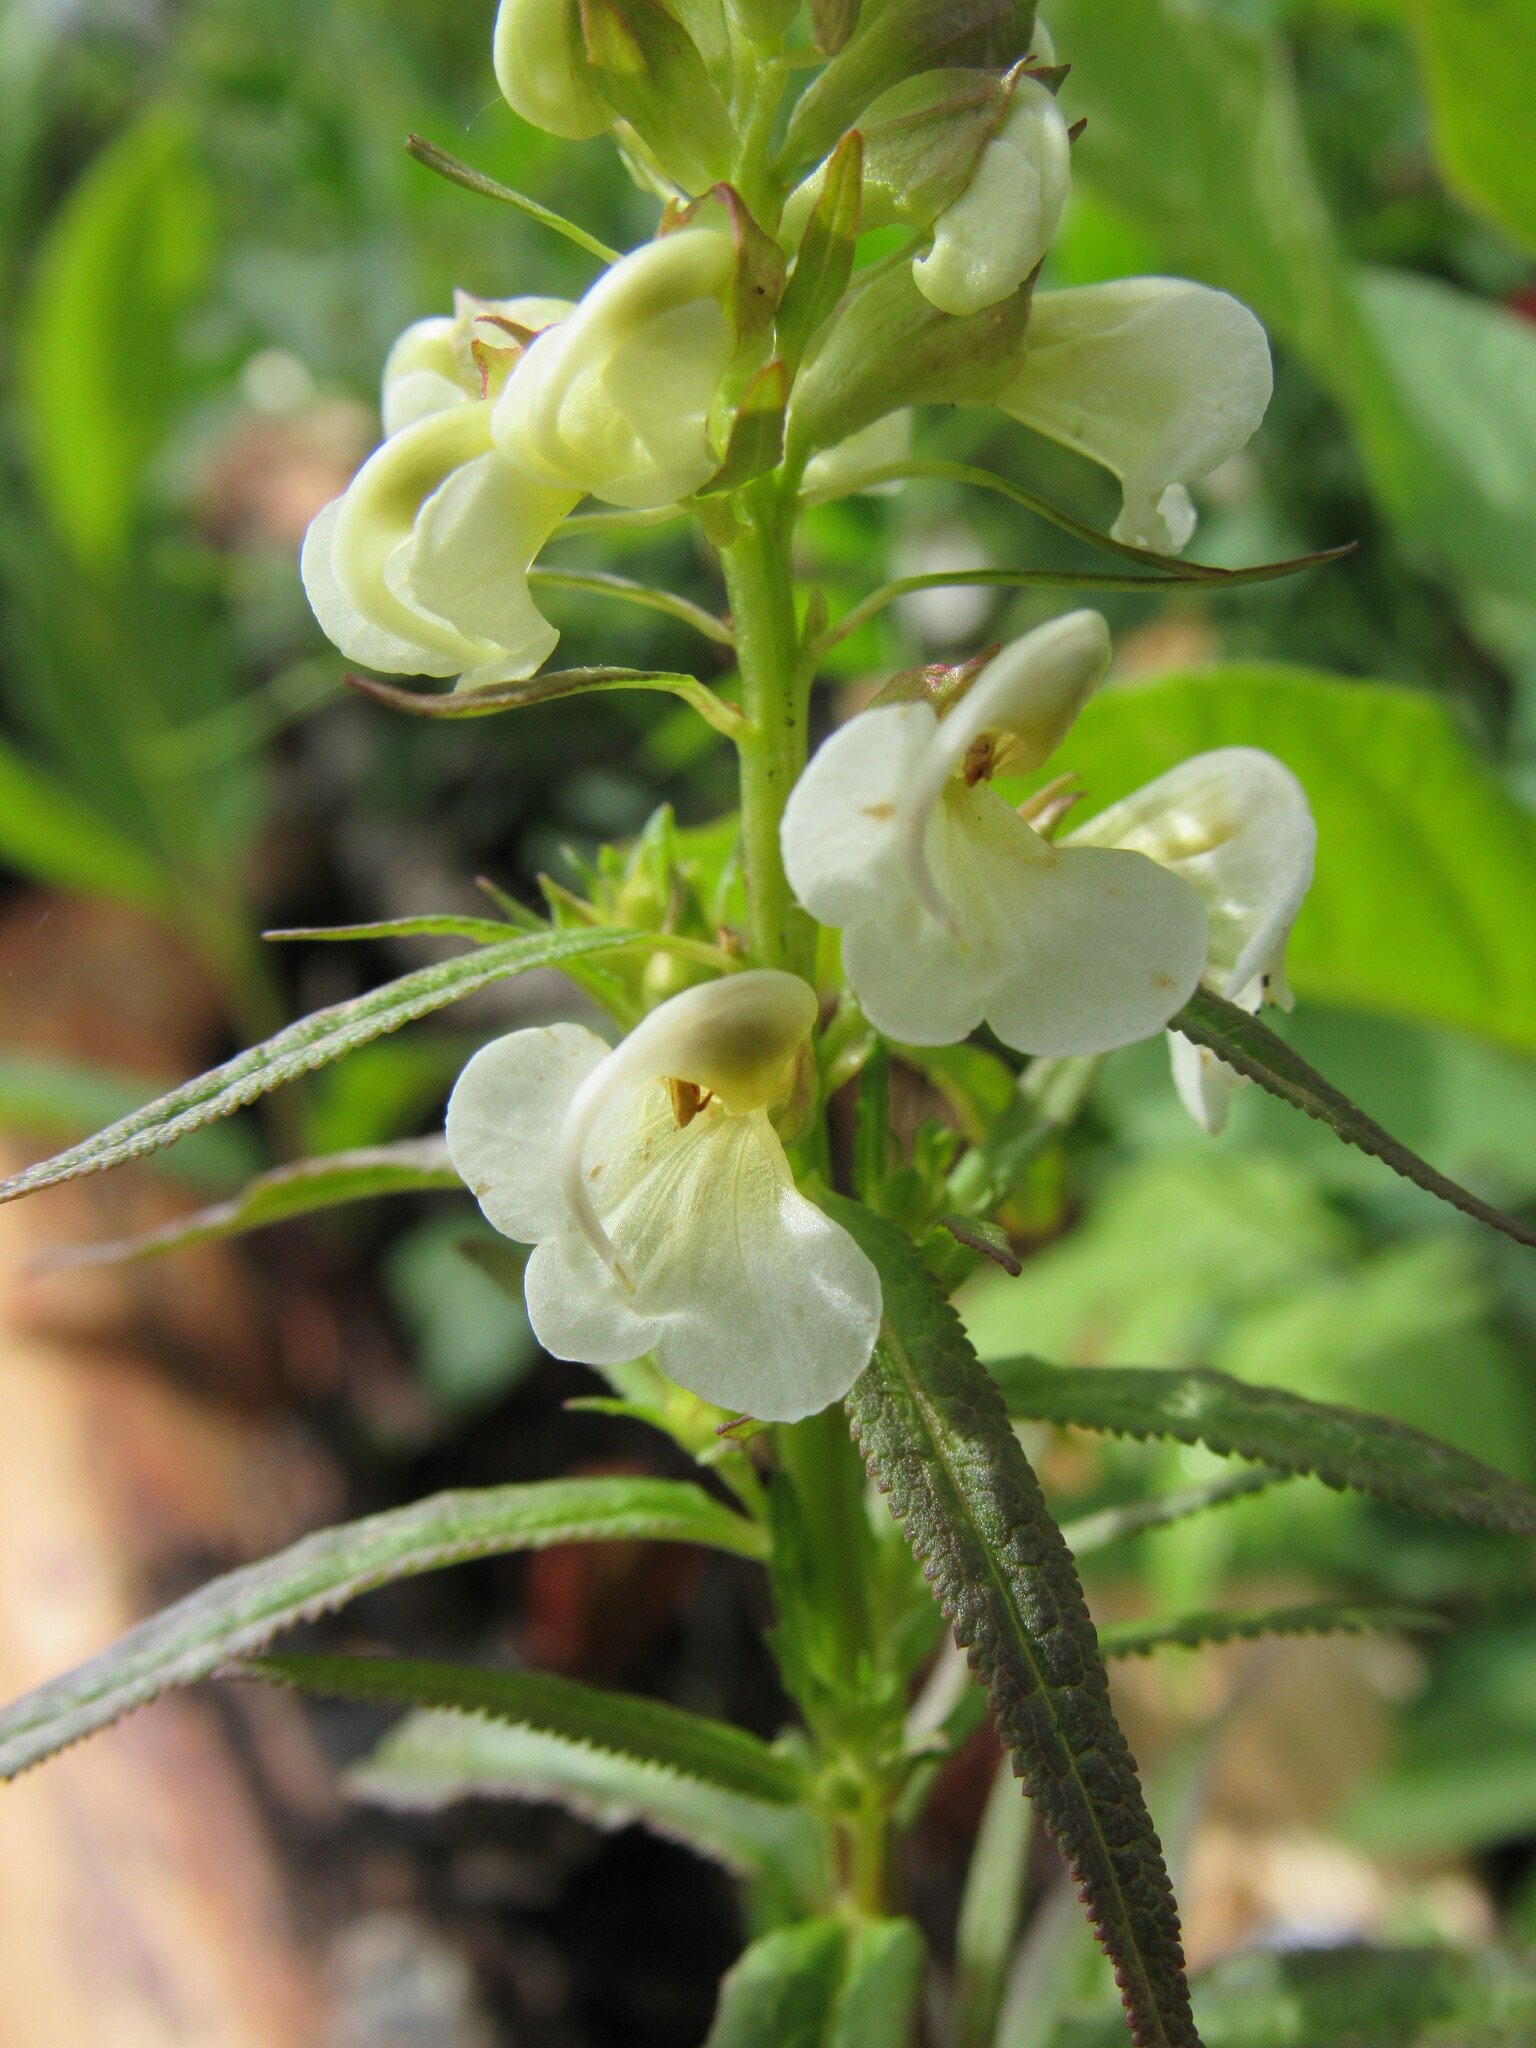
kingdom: Plantae
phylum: Tracheophyta
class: Magnoliopsida
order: Lamiales
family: Orobanchaceae
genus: Pedicularis
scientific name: Pedicularis racemosa
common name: Leafy lousewort
